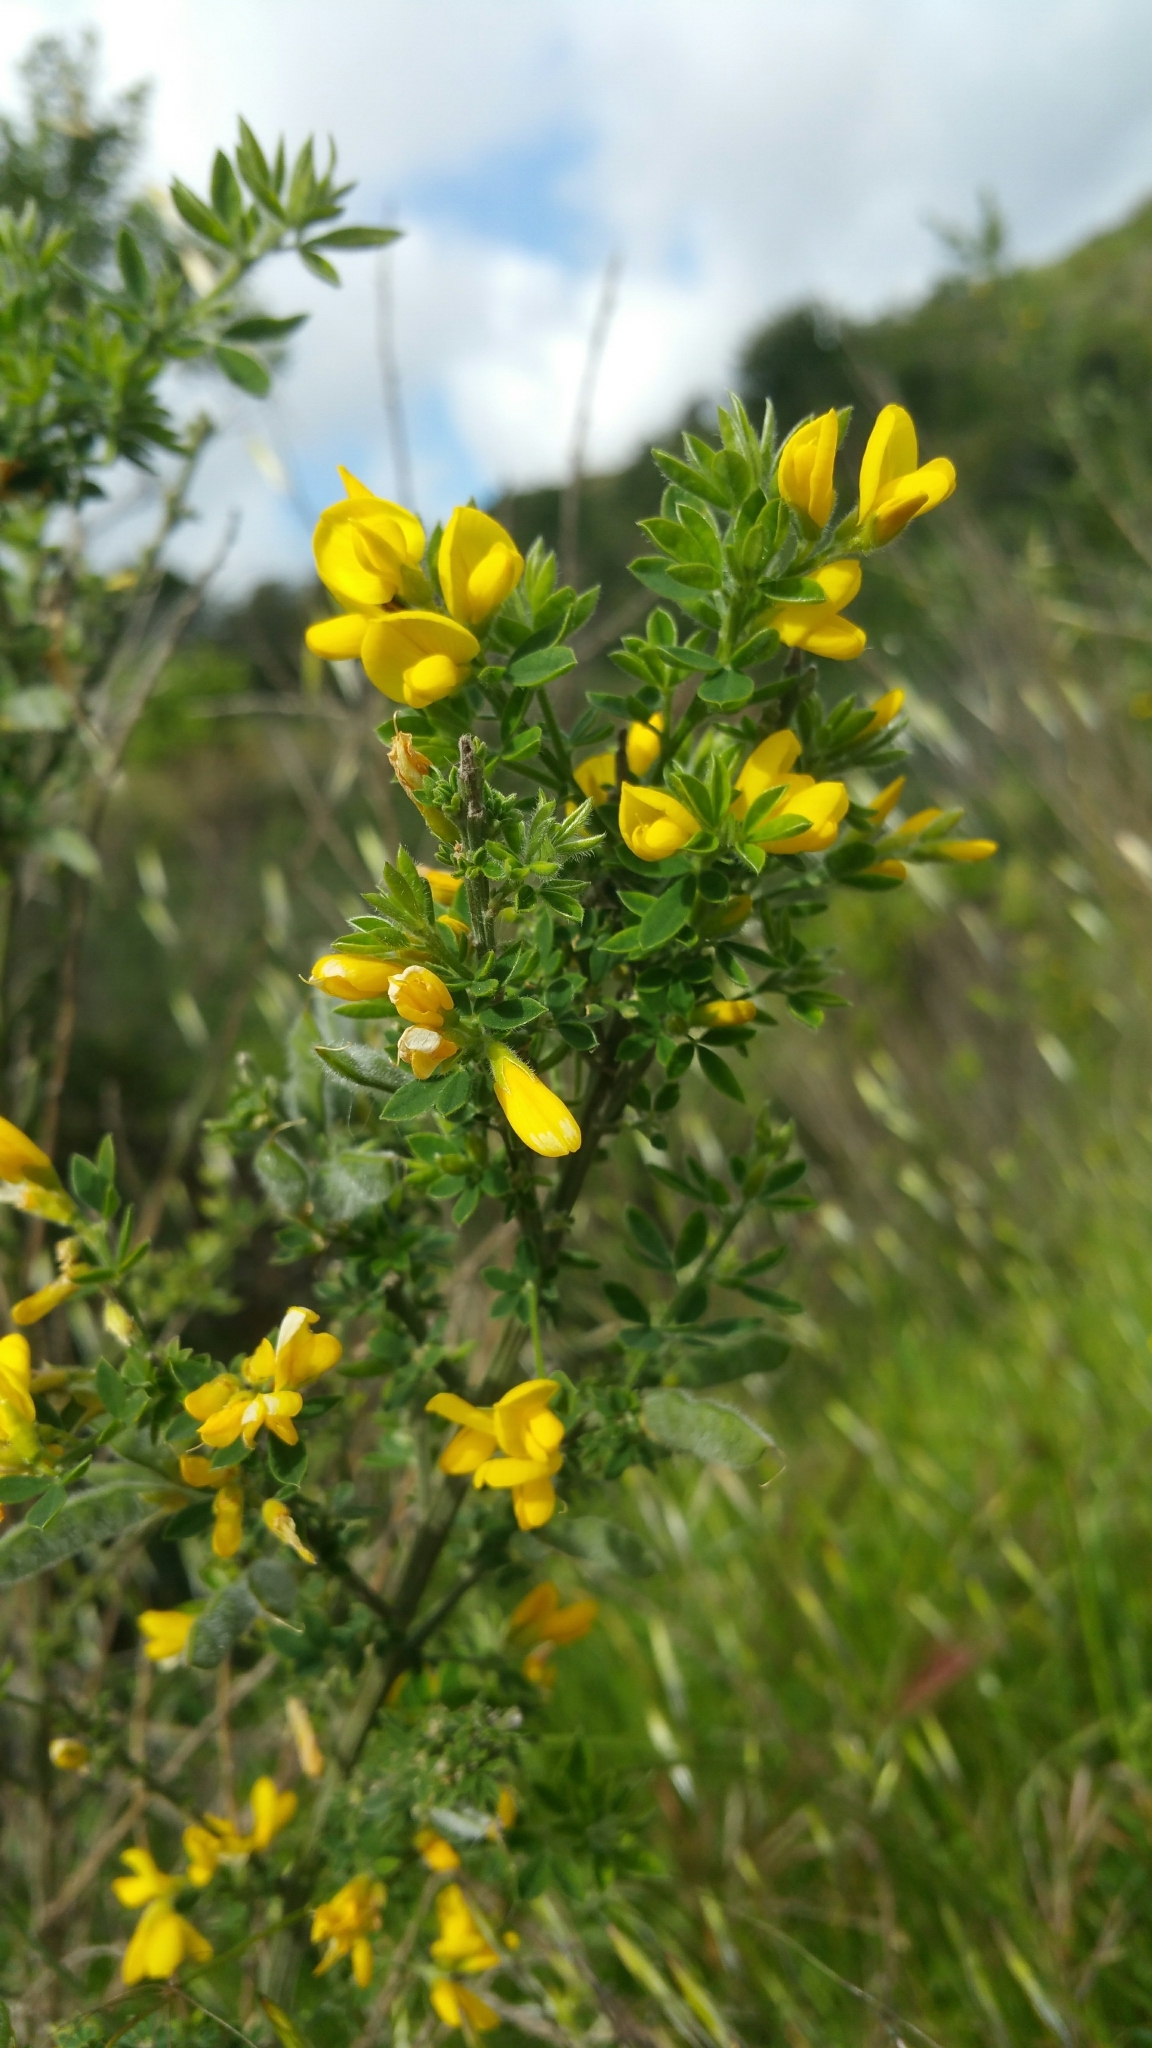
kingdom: Plantae
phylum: Tracheophyta
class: Magnoliopsida
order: Fabales
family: Fabaceae
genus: Genista
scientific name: Genista monspessulana
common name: Montpellier broom
